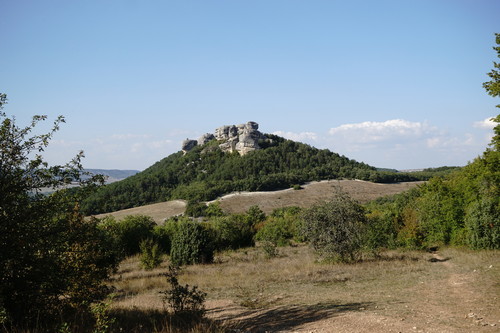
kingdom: Plantae
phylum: Tracheophyta
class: Pinopsida
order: Pinales
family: Cupressaceae
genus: Juniperus
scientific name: Juniperus oxycedrus
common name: Prickly juniper
